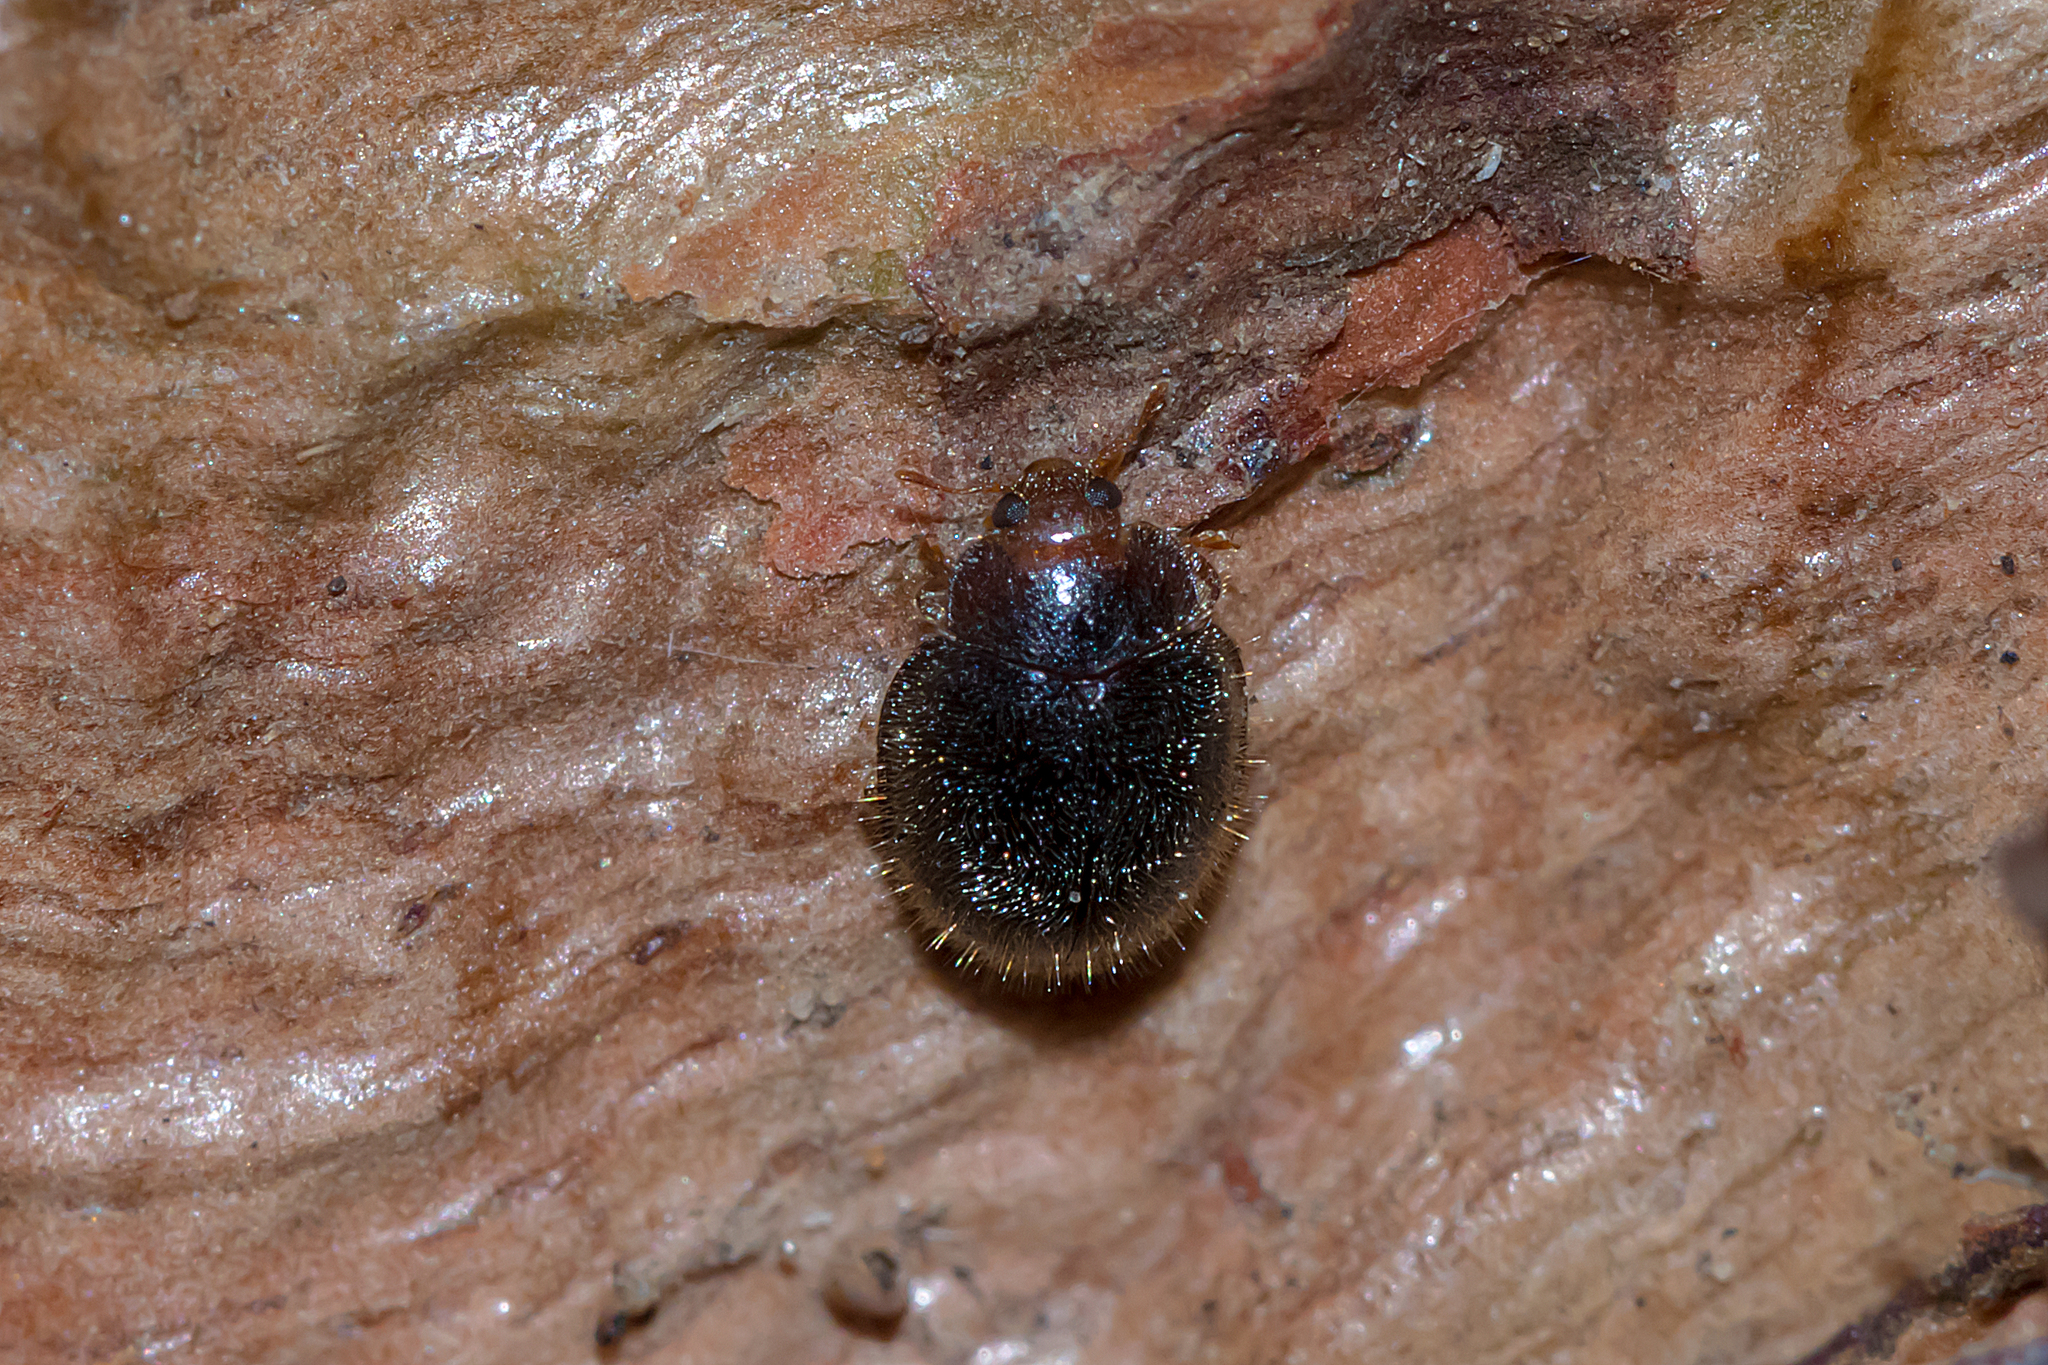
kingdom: Animalia
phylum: Arthropoda
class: Insecta
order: Coleoptera
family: Coccinellidae
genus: Cryptolaemus
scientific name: Cryptolaemus montrouzieri
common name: Mealybug destroyer
